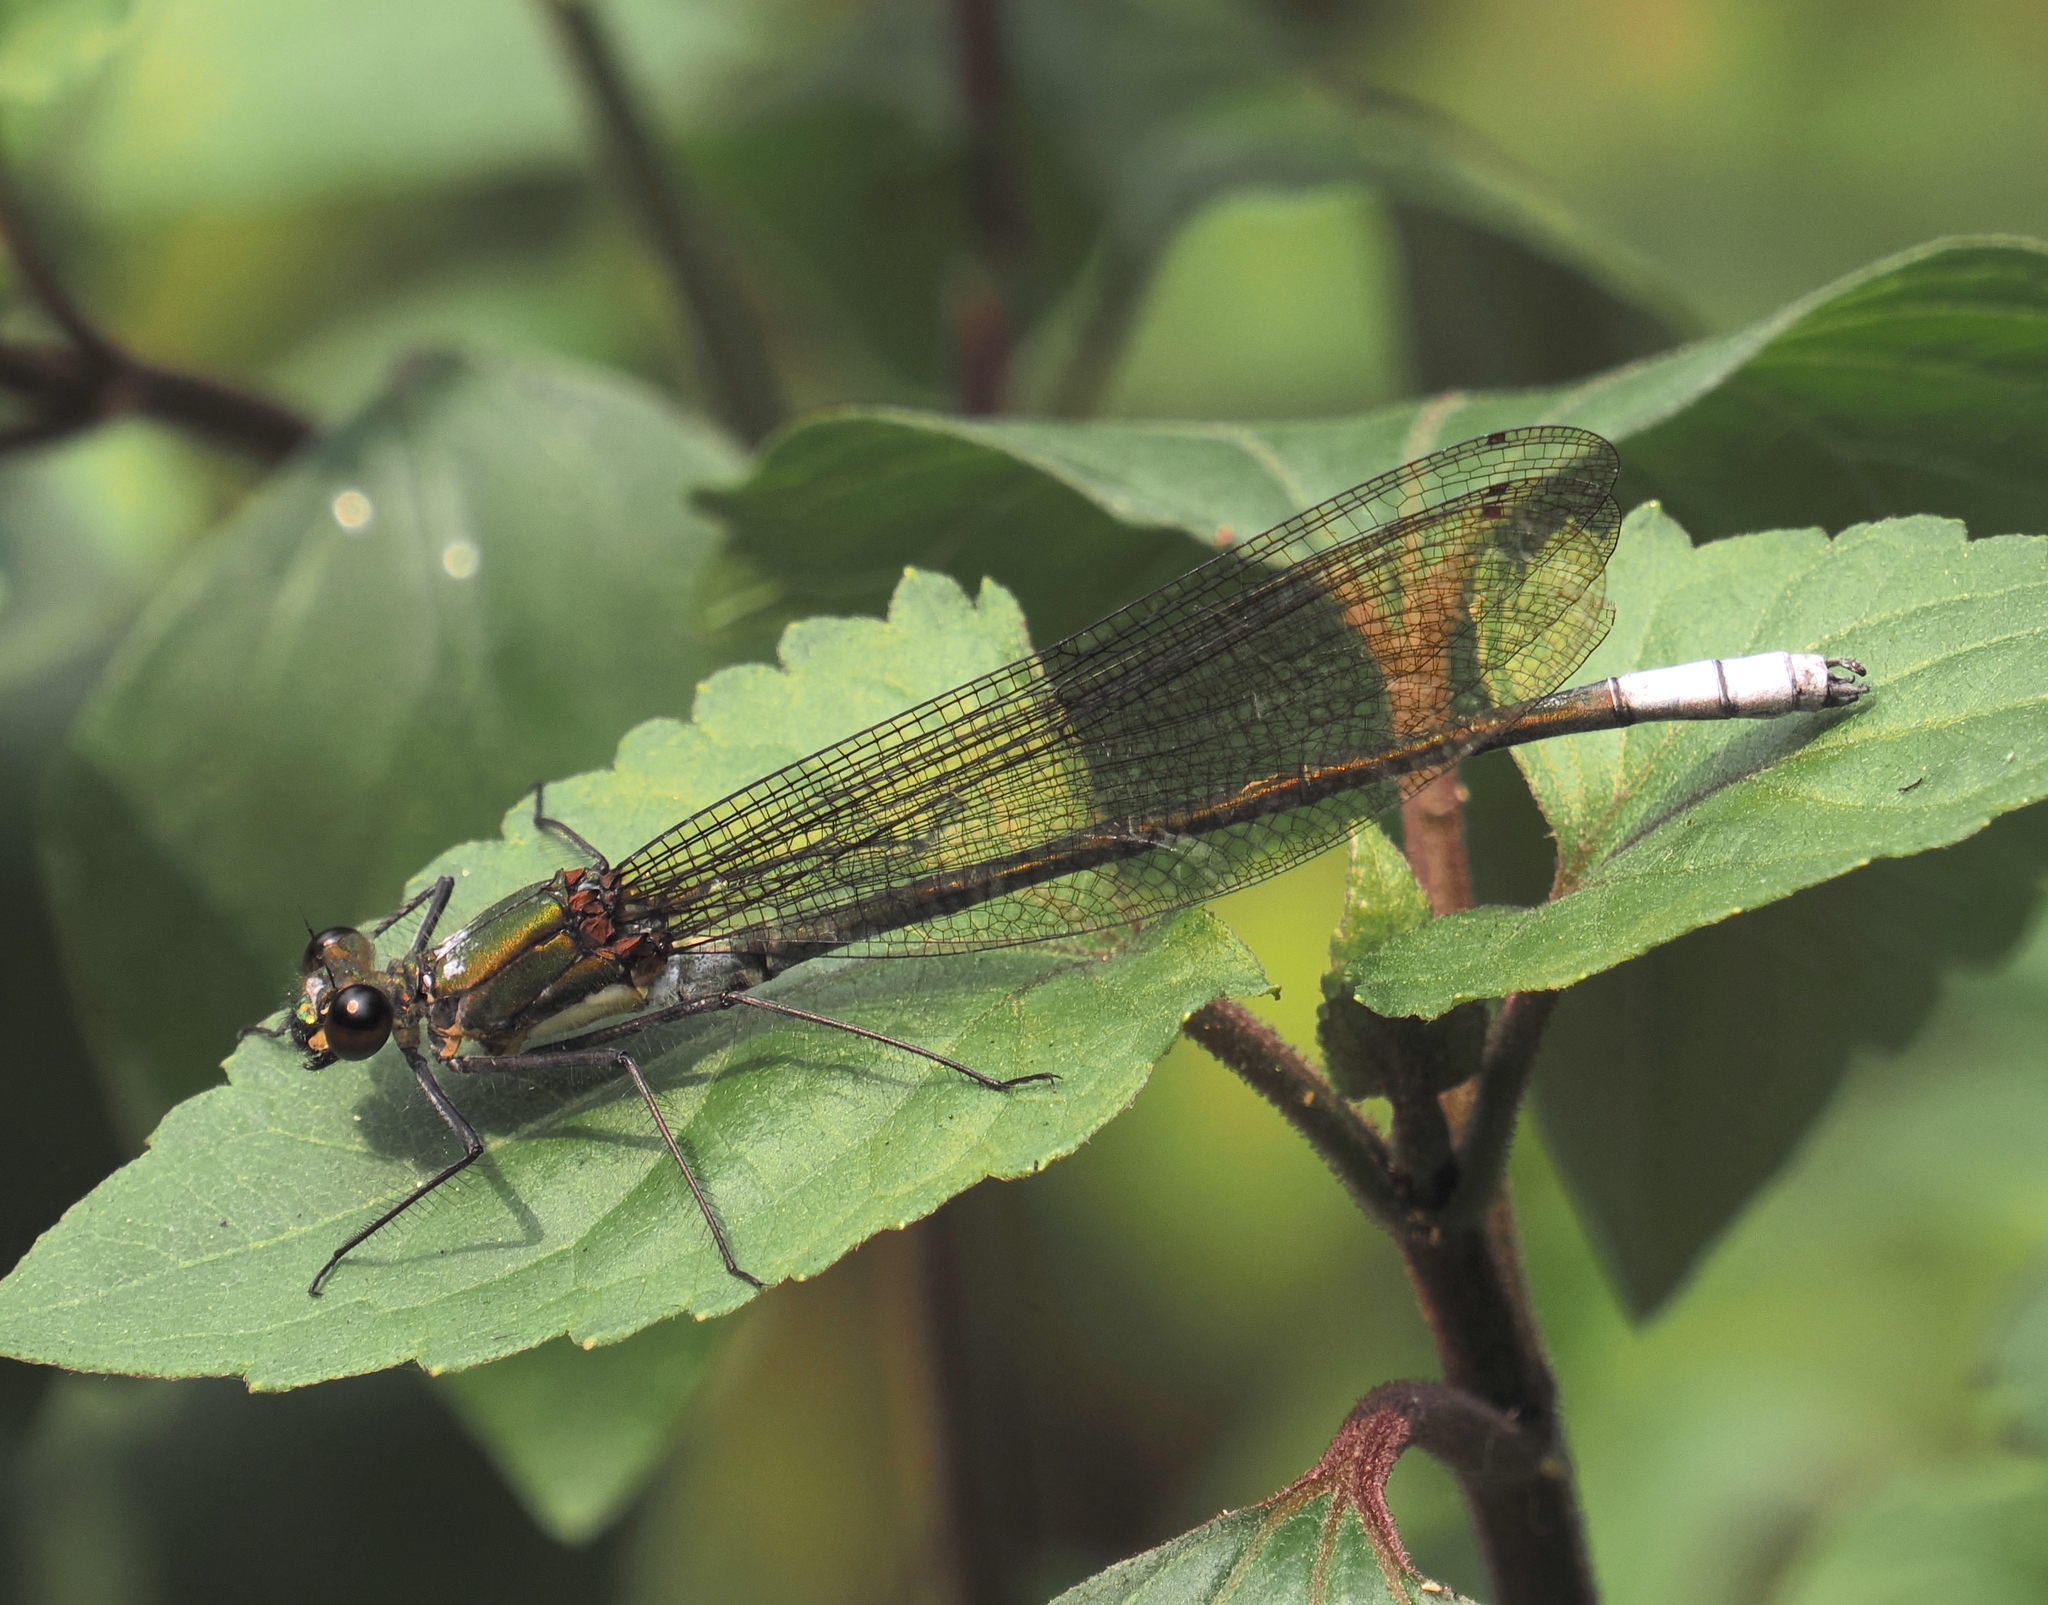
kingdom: Animalia
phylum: Arthropoda
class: Insecta
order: Odonata
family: Calopterygidae
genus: Mnais
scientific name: Mnais yunosukei
